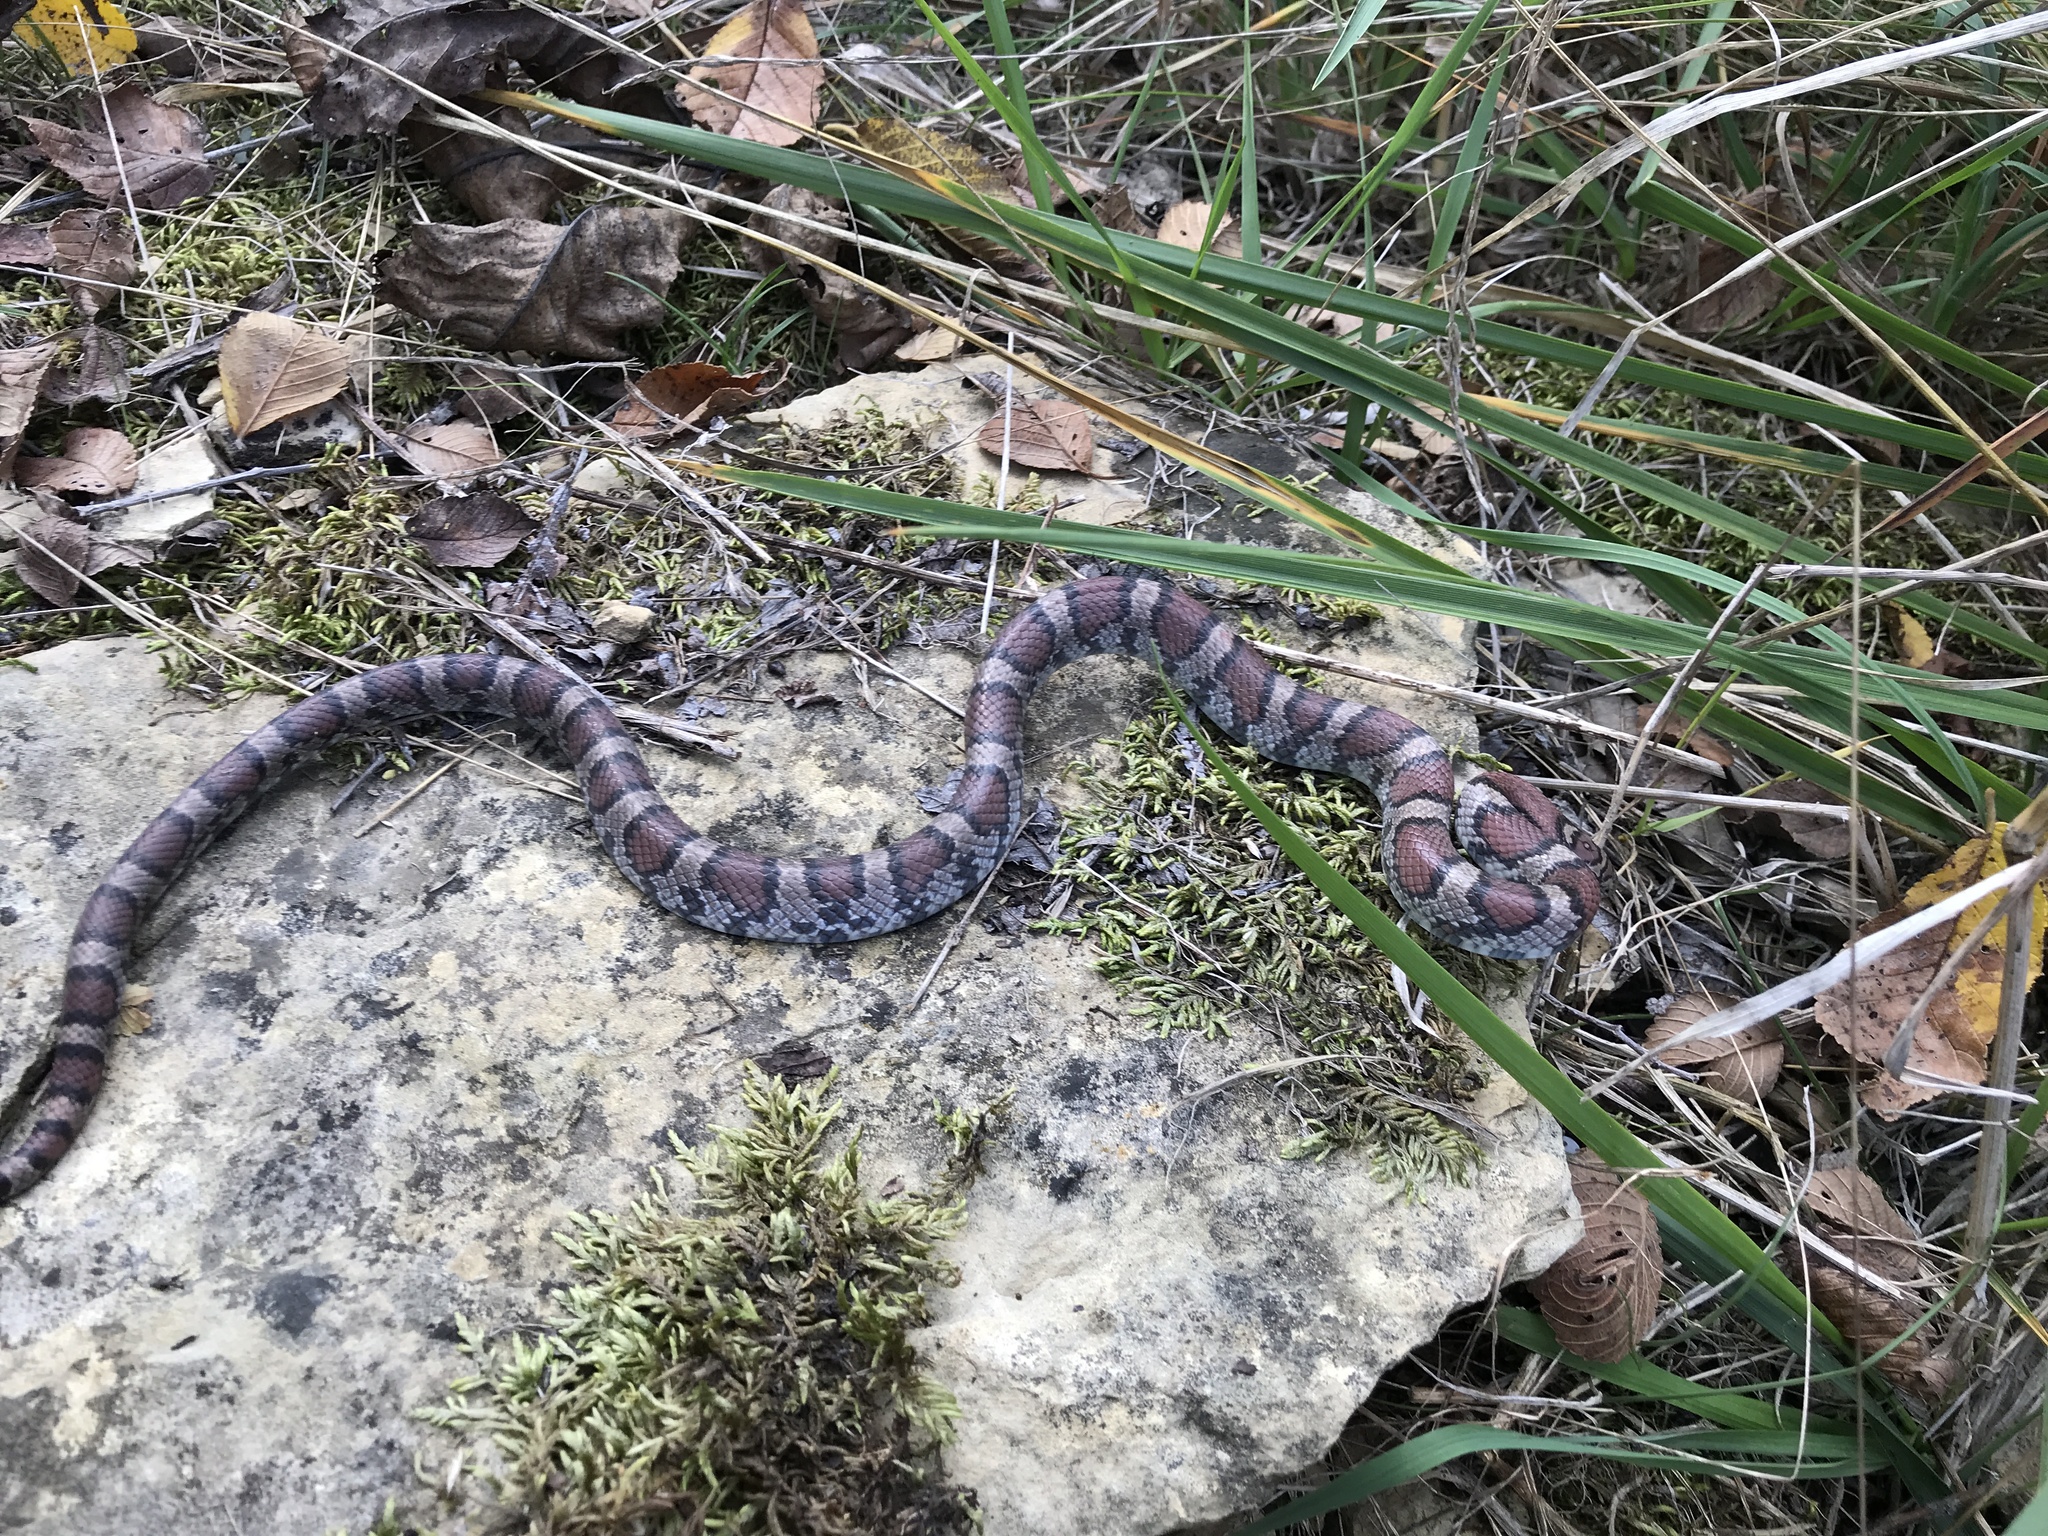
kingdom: Animalia
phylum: Chordata
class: Squamata
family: Colubridae
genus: Lampropeltis
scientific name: Lampropeltis triangulum
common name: Eastern milksnake
